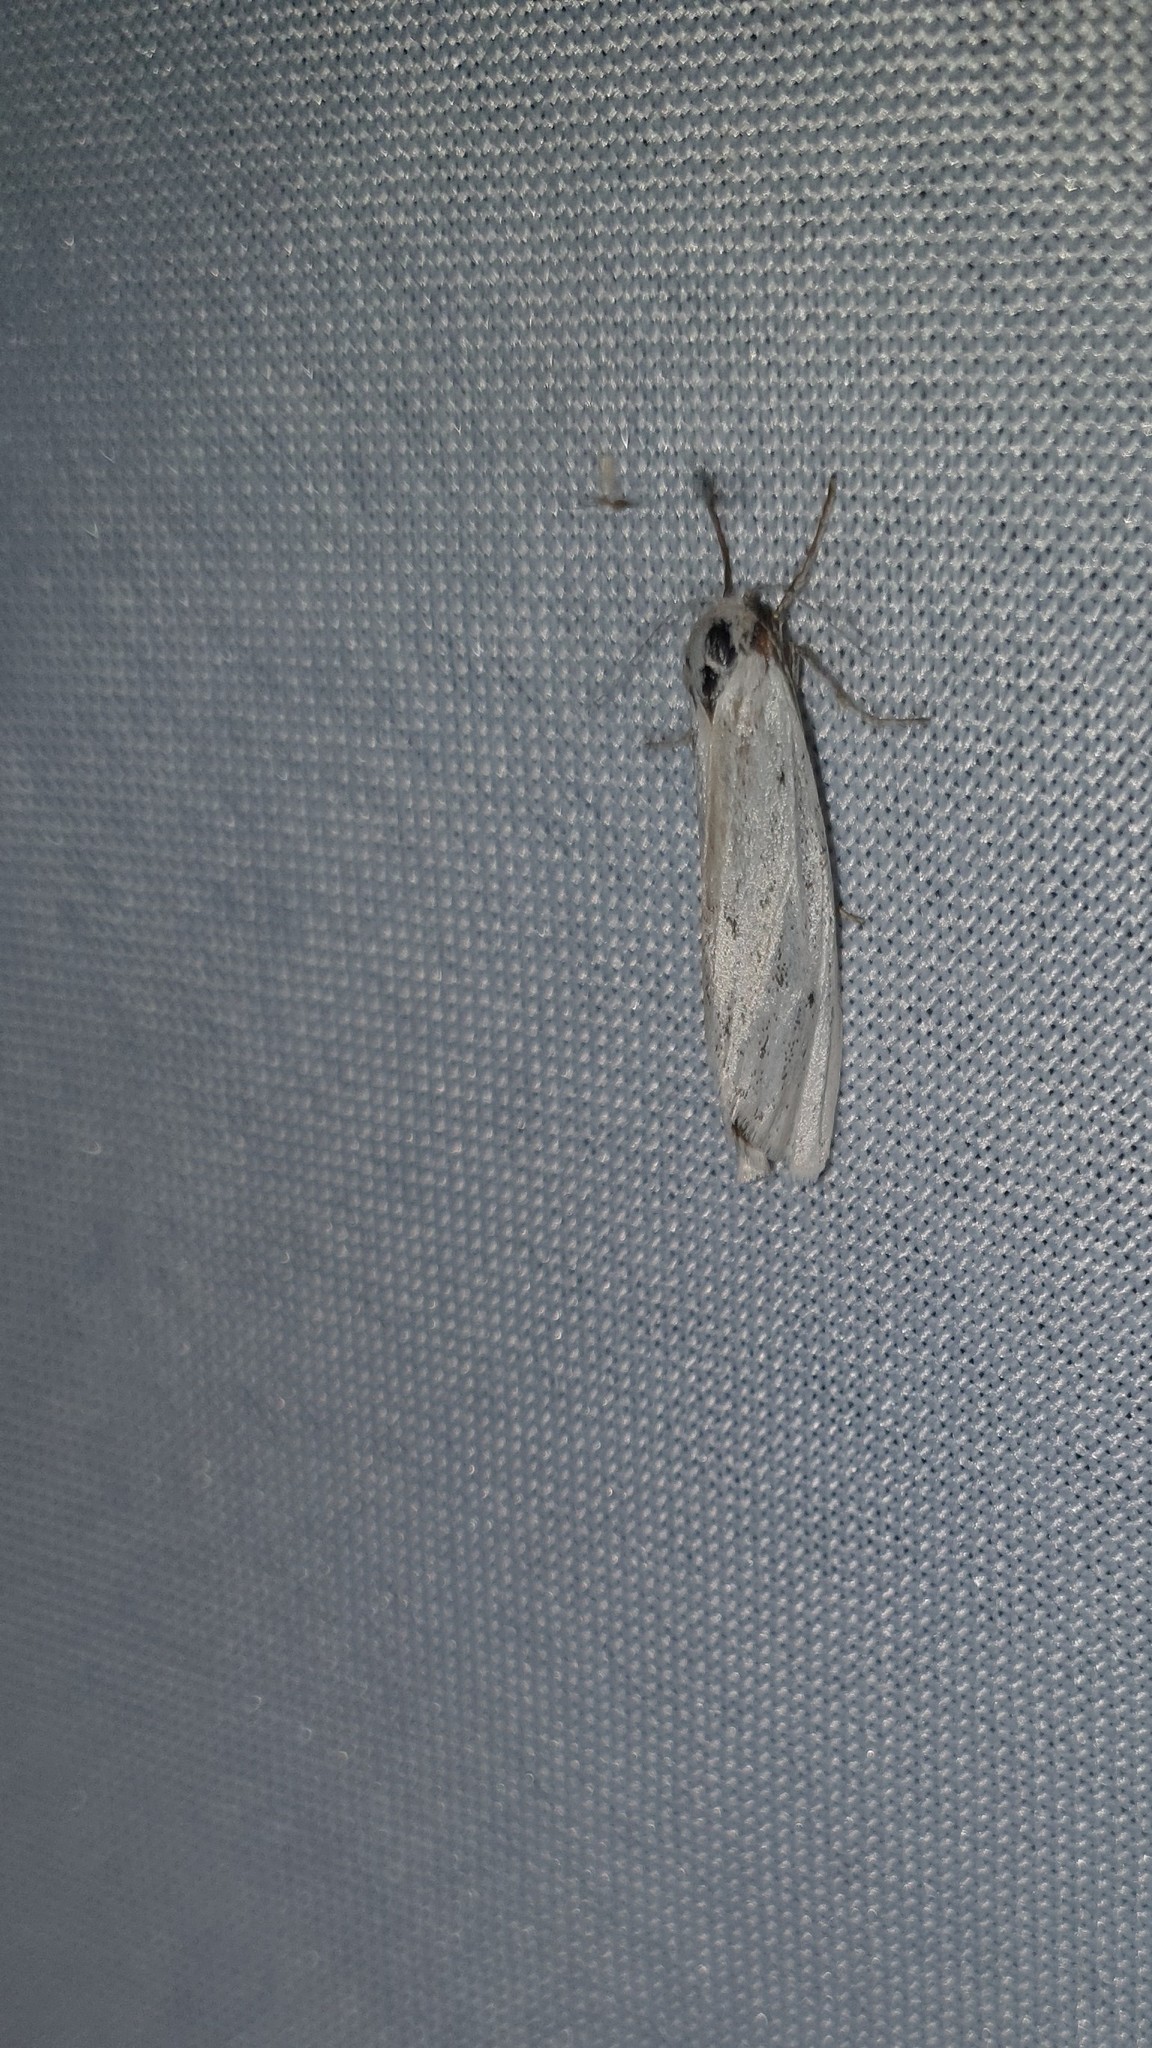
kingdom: Animalia
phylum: Arthropoda
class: Insecta
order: Lepidoptera
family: Erebidae
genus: Coscinia
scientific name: Coscinia cribraria
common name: Speckled footman
